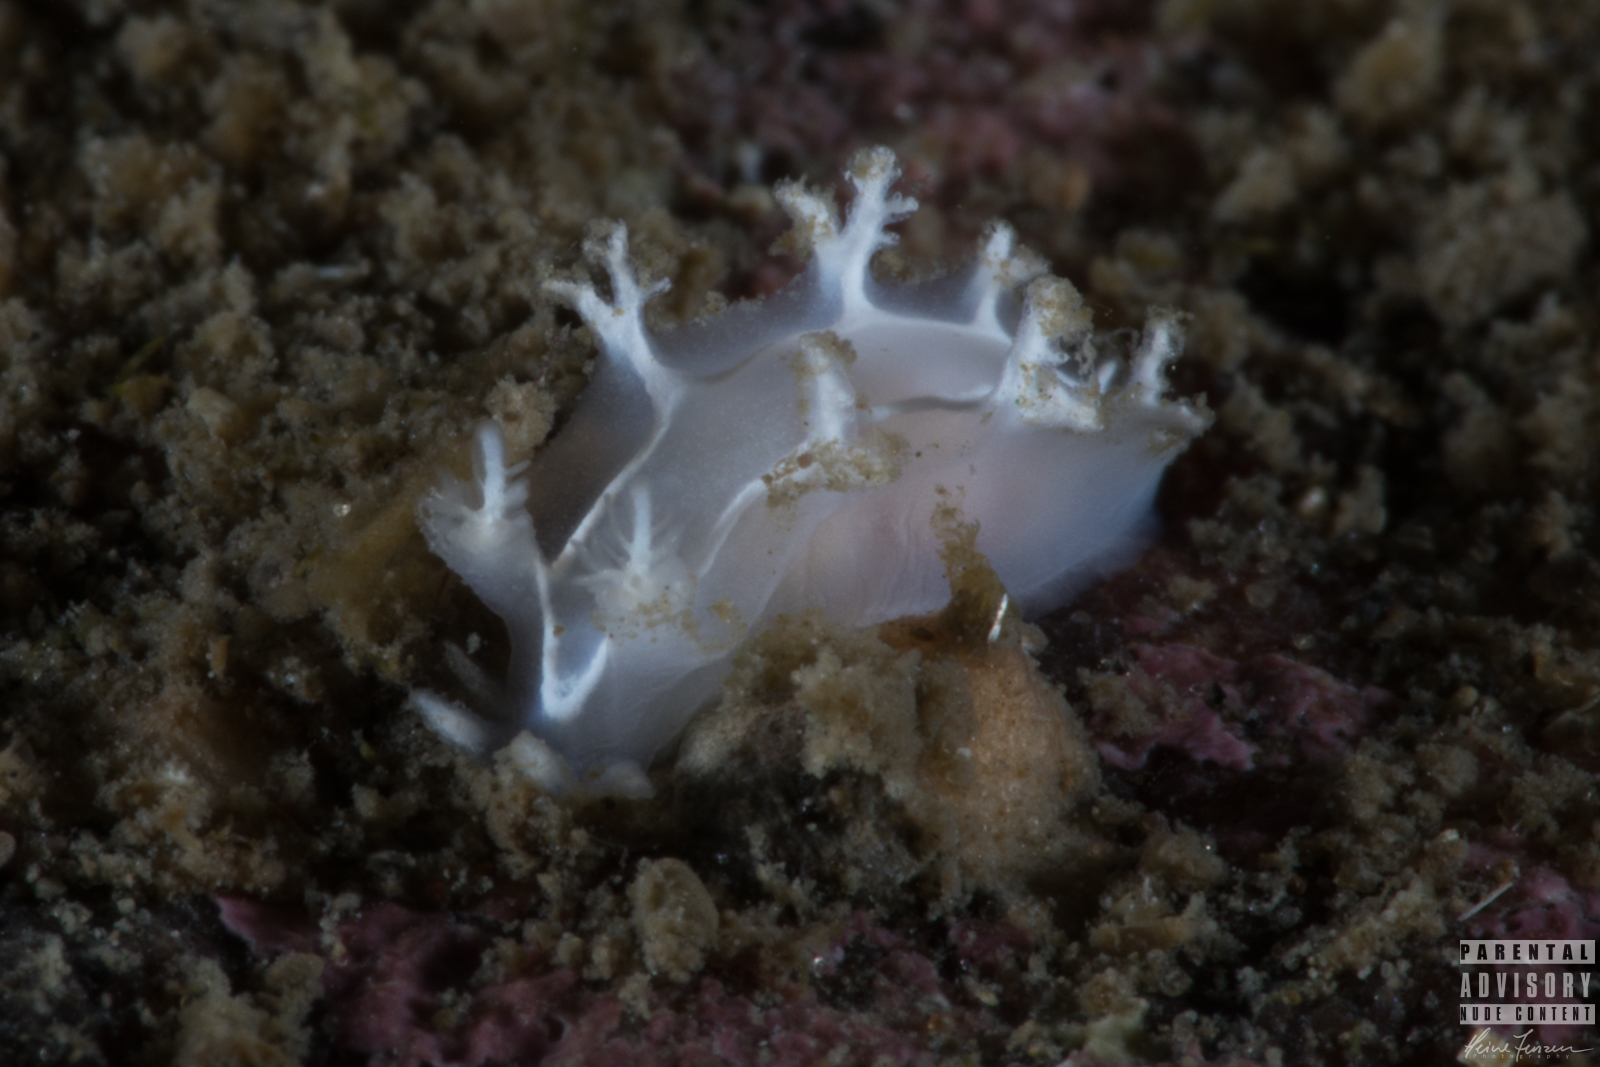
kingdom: Animalia
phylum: Mollusca
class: Gastropoda
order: Nudibranchia
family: Tritoniidae
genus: Duvaucelia
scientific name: Duvaucelia lineata
